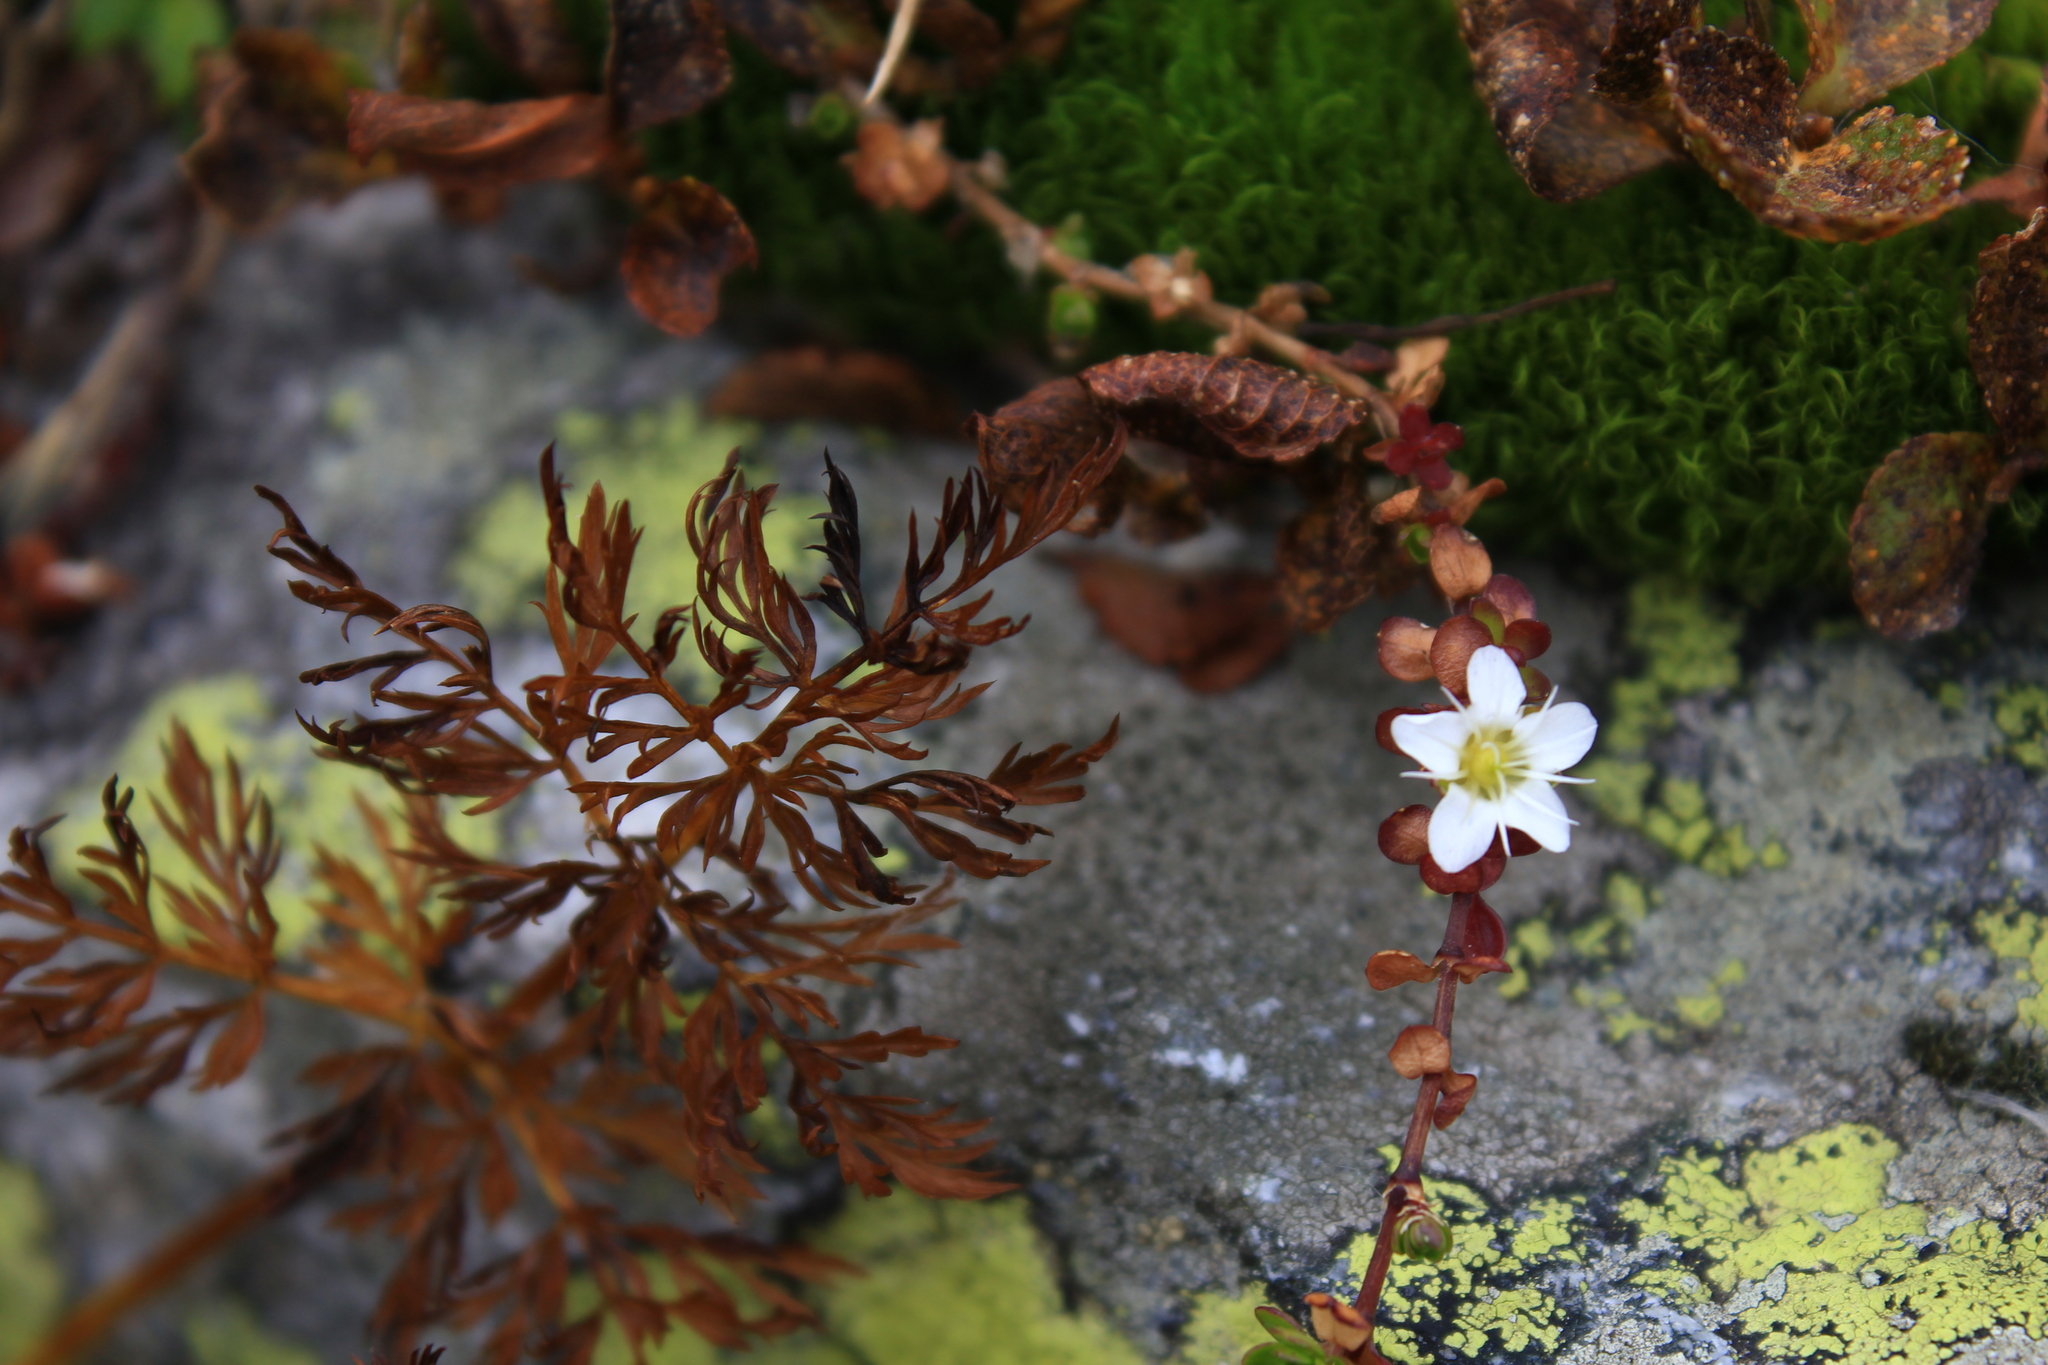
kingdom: Plantae
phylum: Tracheophyta
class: Magnoliopsida
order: Caryophyllales
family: Caryophyllaceae
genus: Arenaria
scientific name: Arenaria biflora
